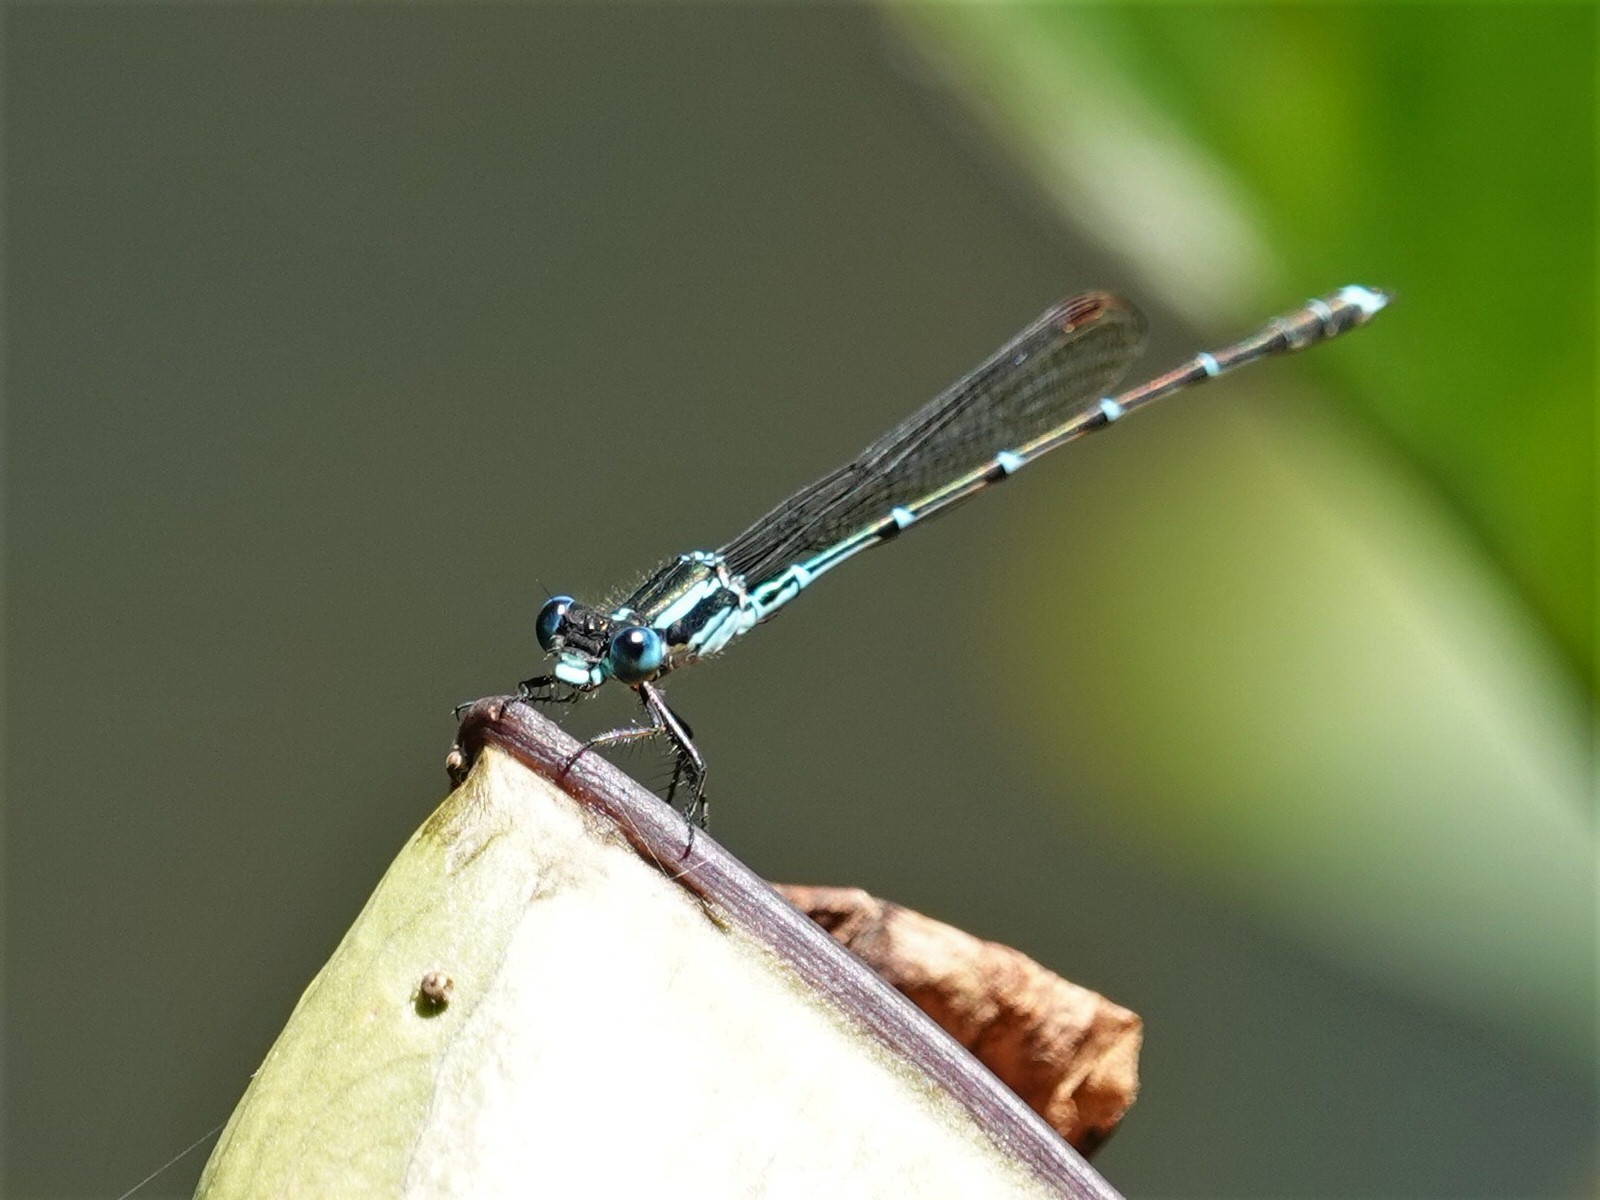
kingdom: Animalia
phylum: Arthropoda
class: Insecta
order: Odonata
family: Lestidae
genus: Austrolestes
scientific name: Austrolestes colensonis
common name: Blue damselfly
